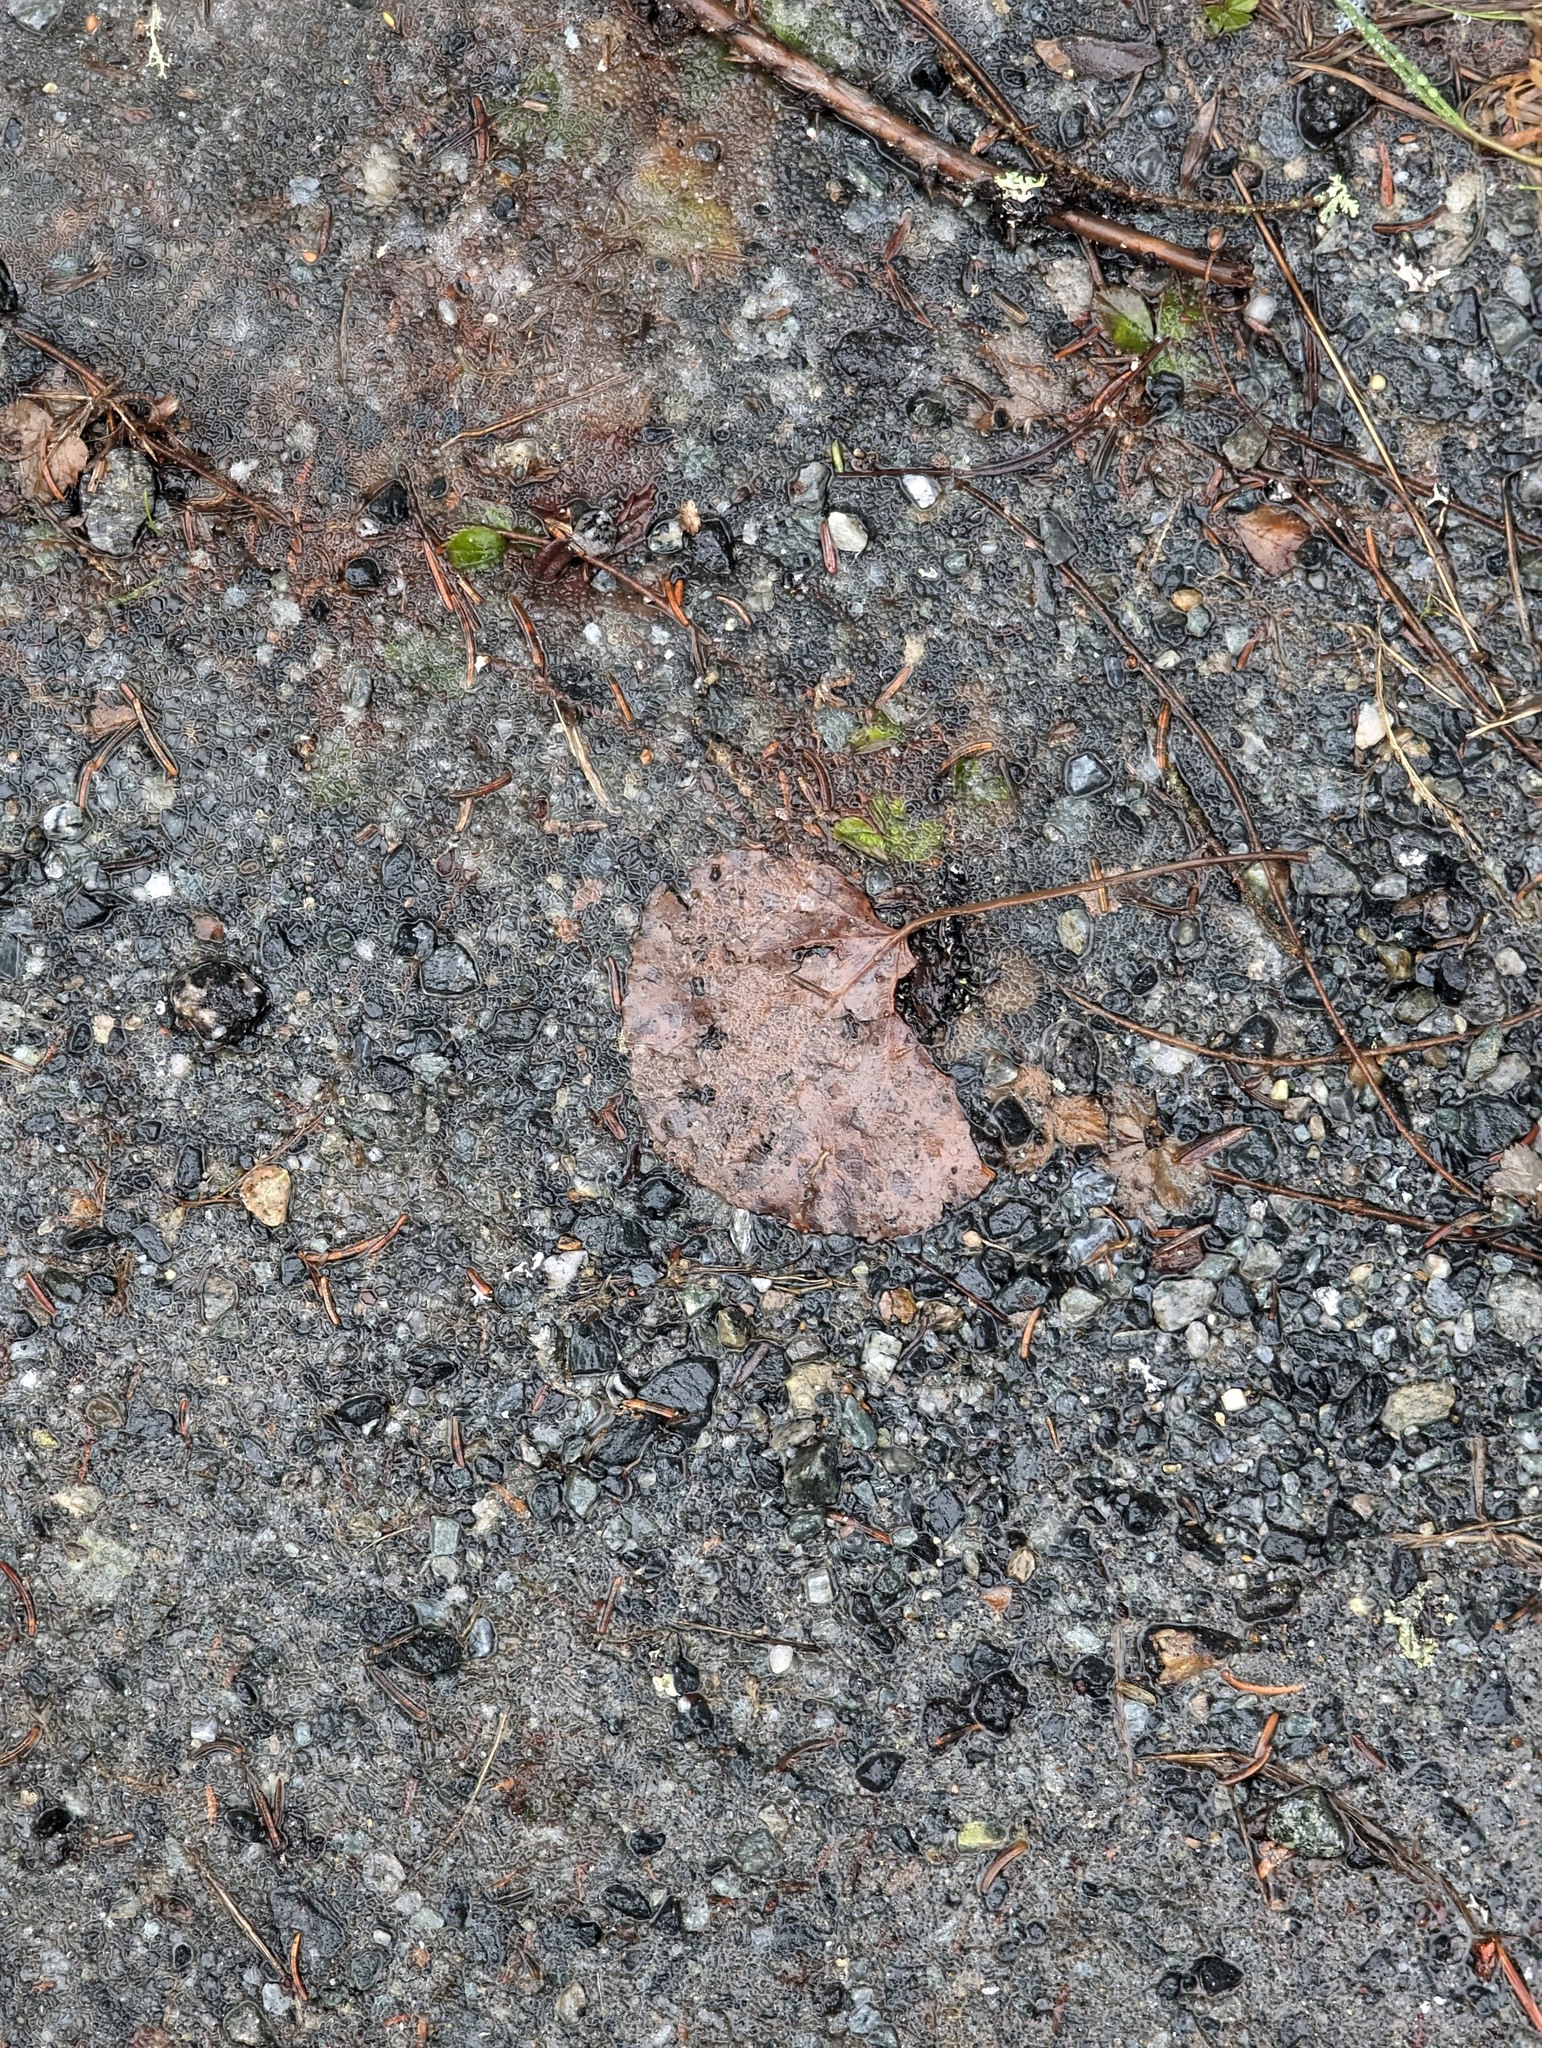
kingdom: Plantae
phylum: Tracheophyta
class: Magnoliopsida
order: Malpighiales
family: Salicaceae
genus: Populus
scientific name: Populus tremuloides
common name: Quaking aspen
